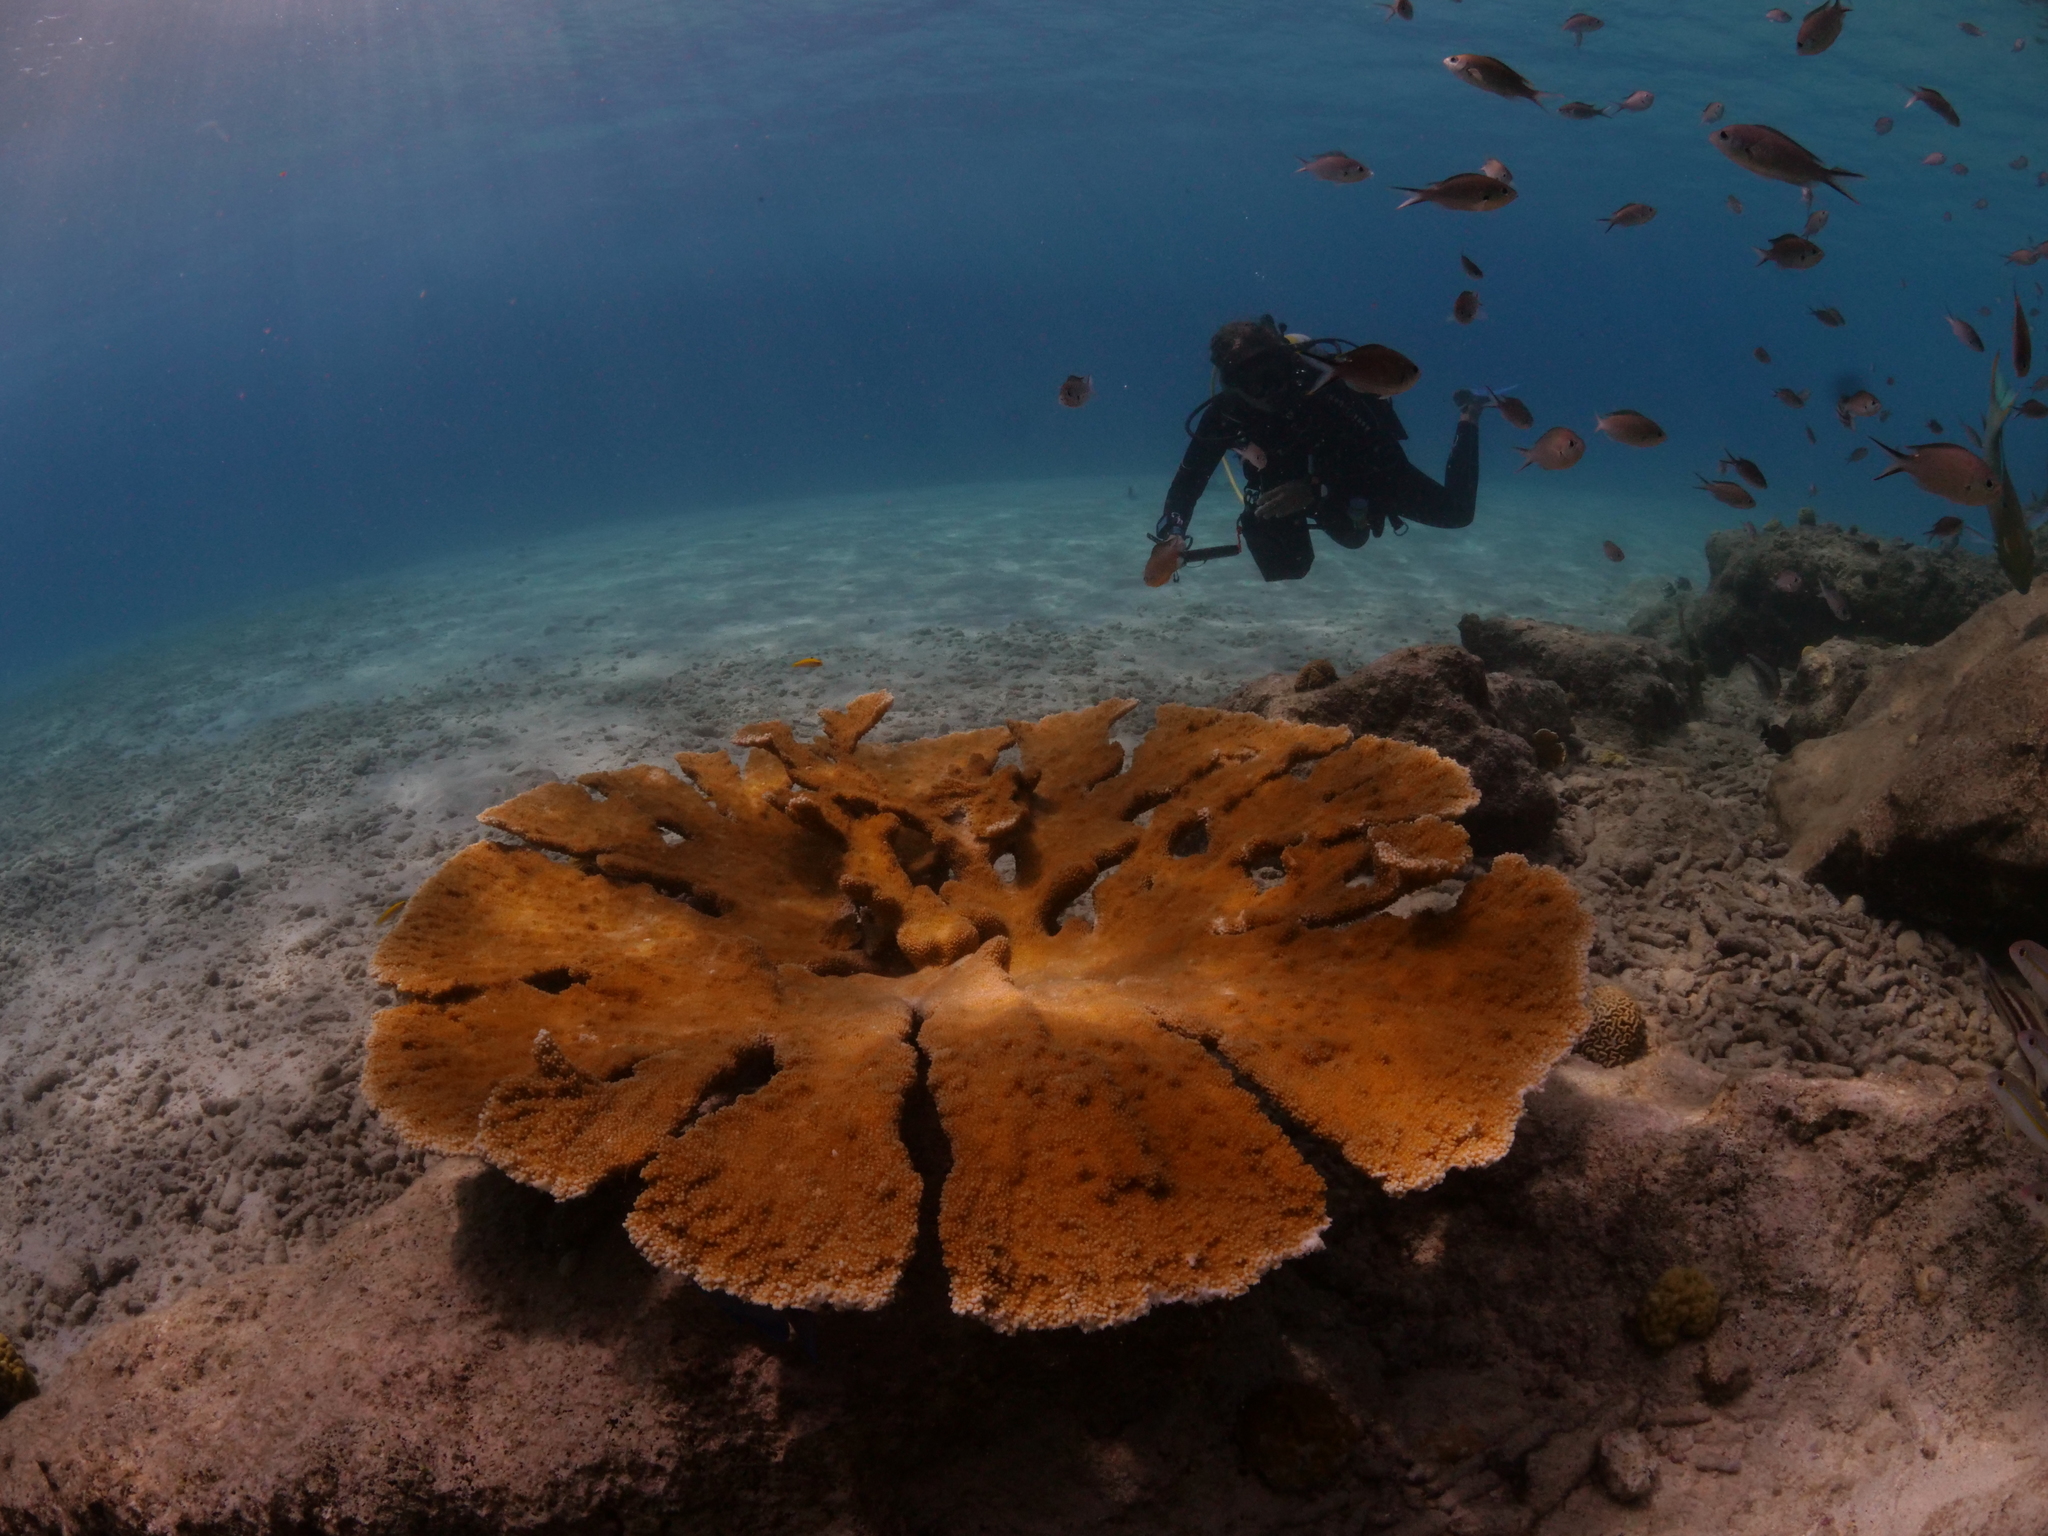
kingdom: Animalia
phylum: Cnidaria
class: Anthozoa
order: Scleractinia
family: Acroporidae
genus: Acropora
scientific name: Acropora palmata
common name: Elkhorn coral
